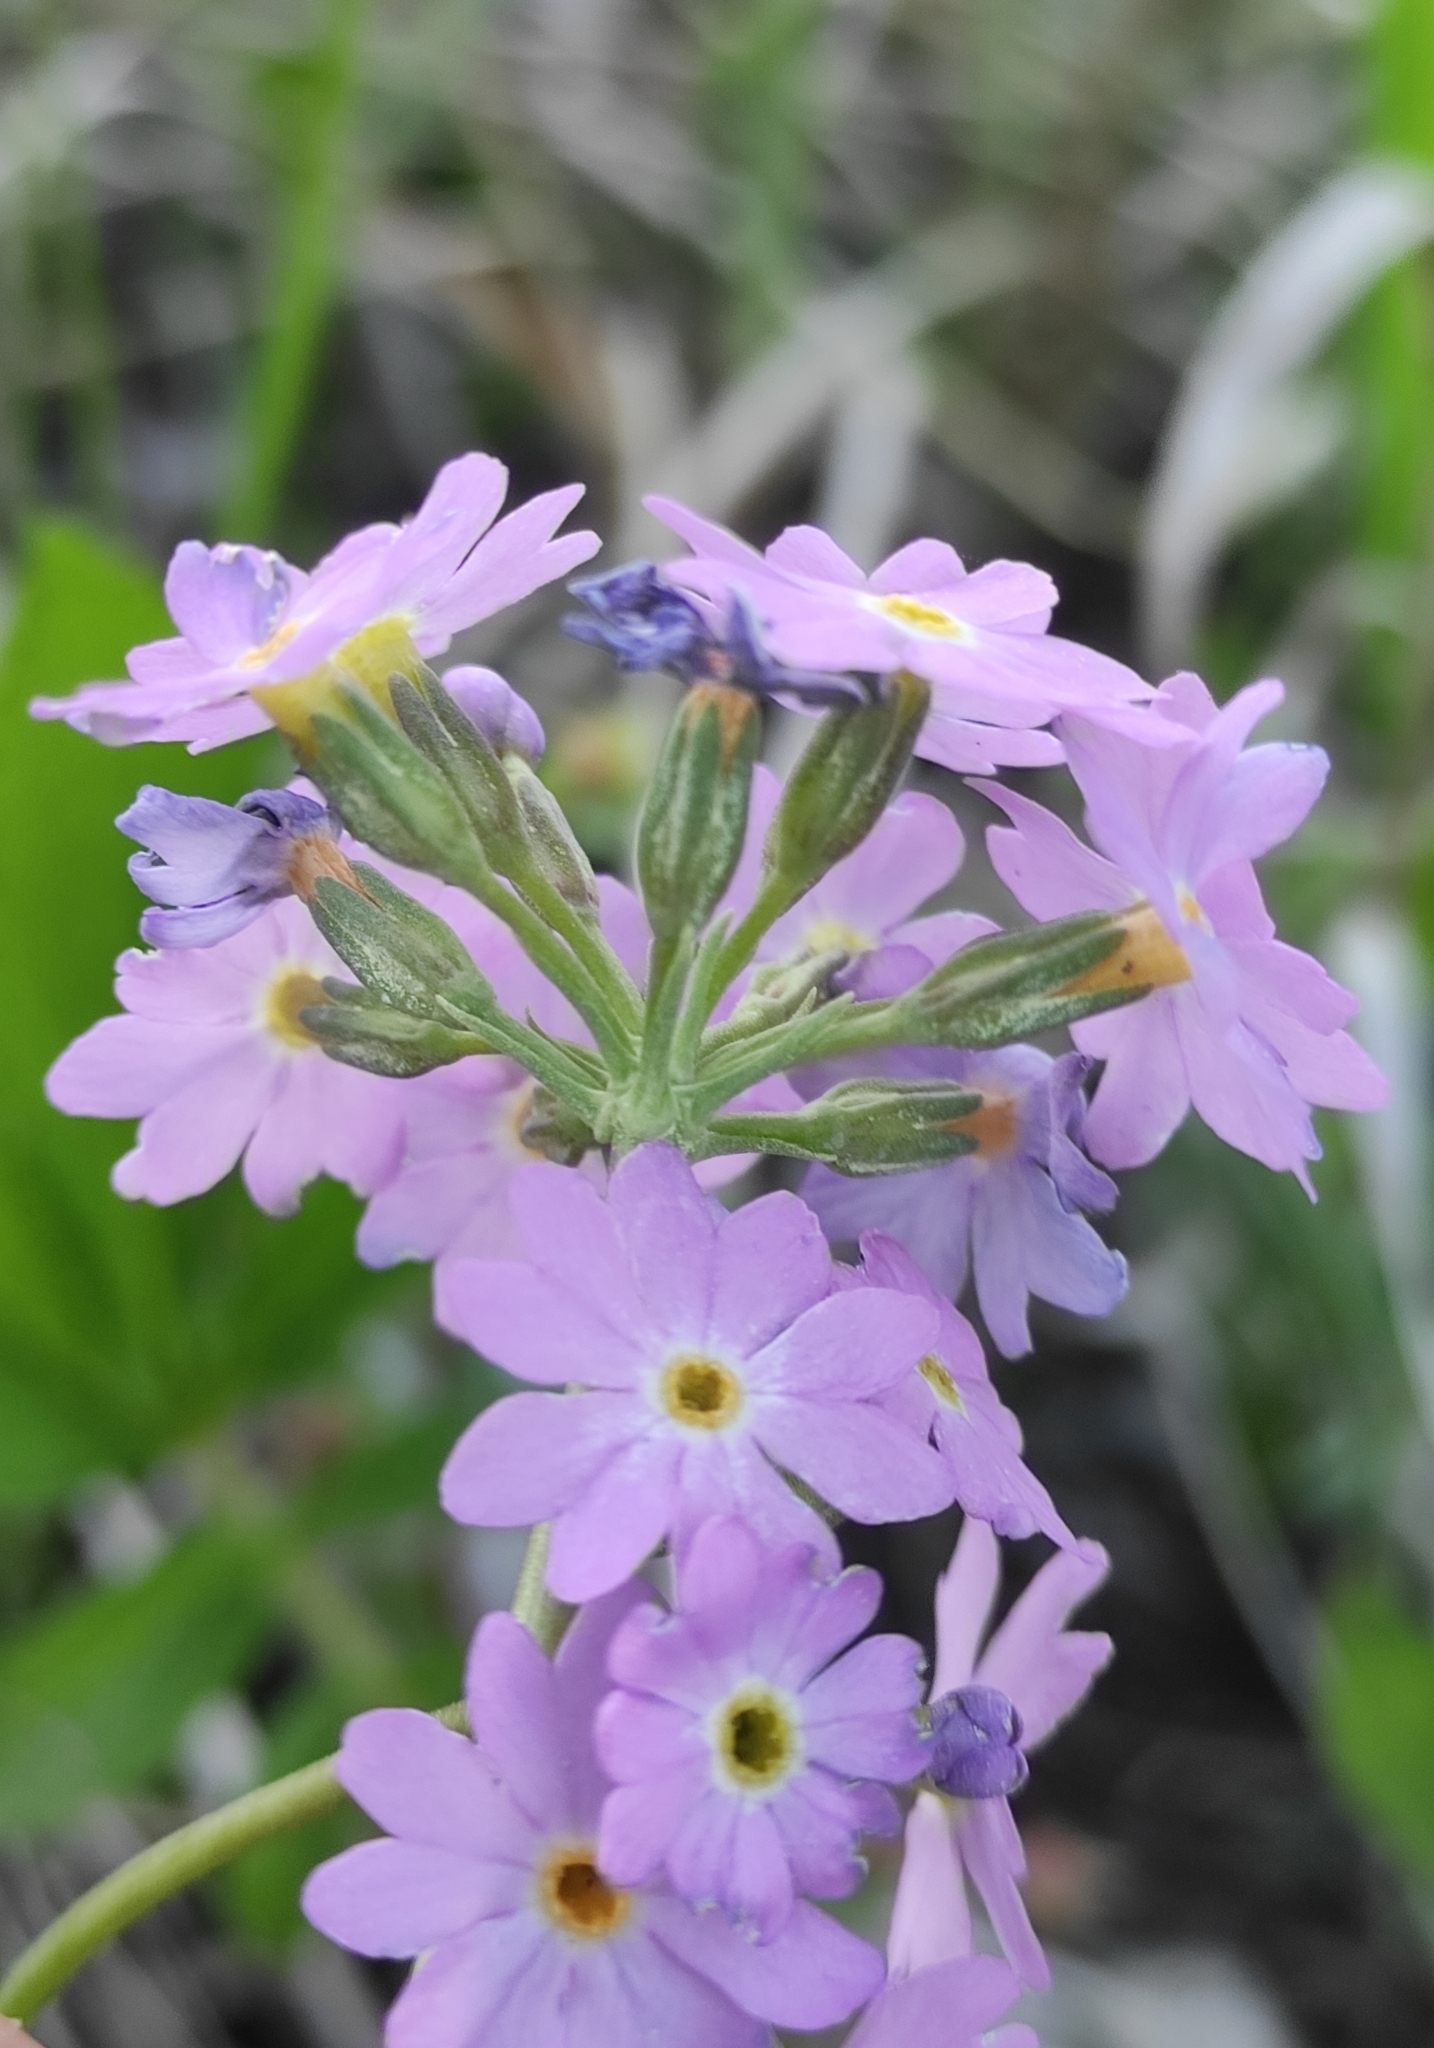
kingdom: Plantae
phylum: Tracheophyta
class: Magnoliopsida
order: Ericales
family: Primulaceae
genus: Primula
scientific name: Primula farinosa
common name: Bird's-eye primrose
